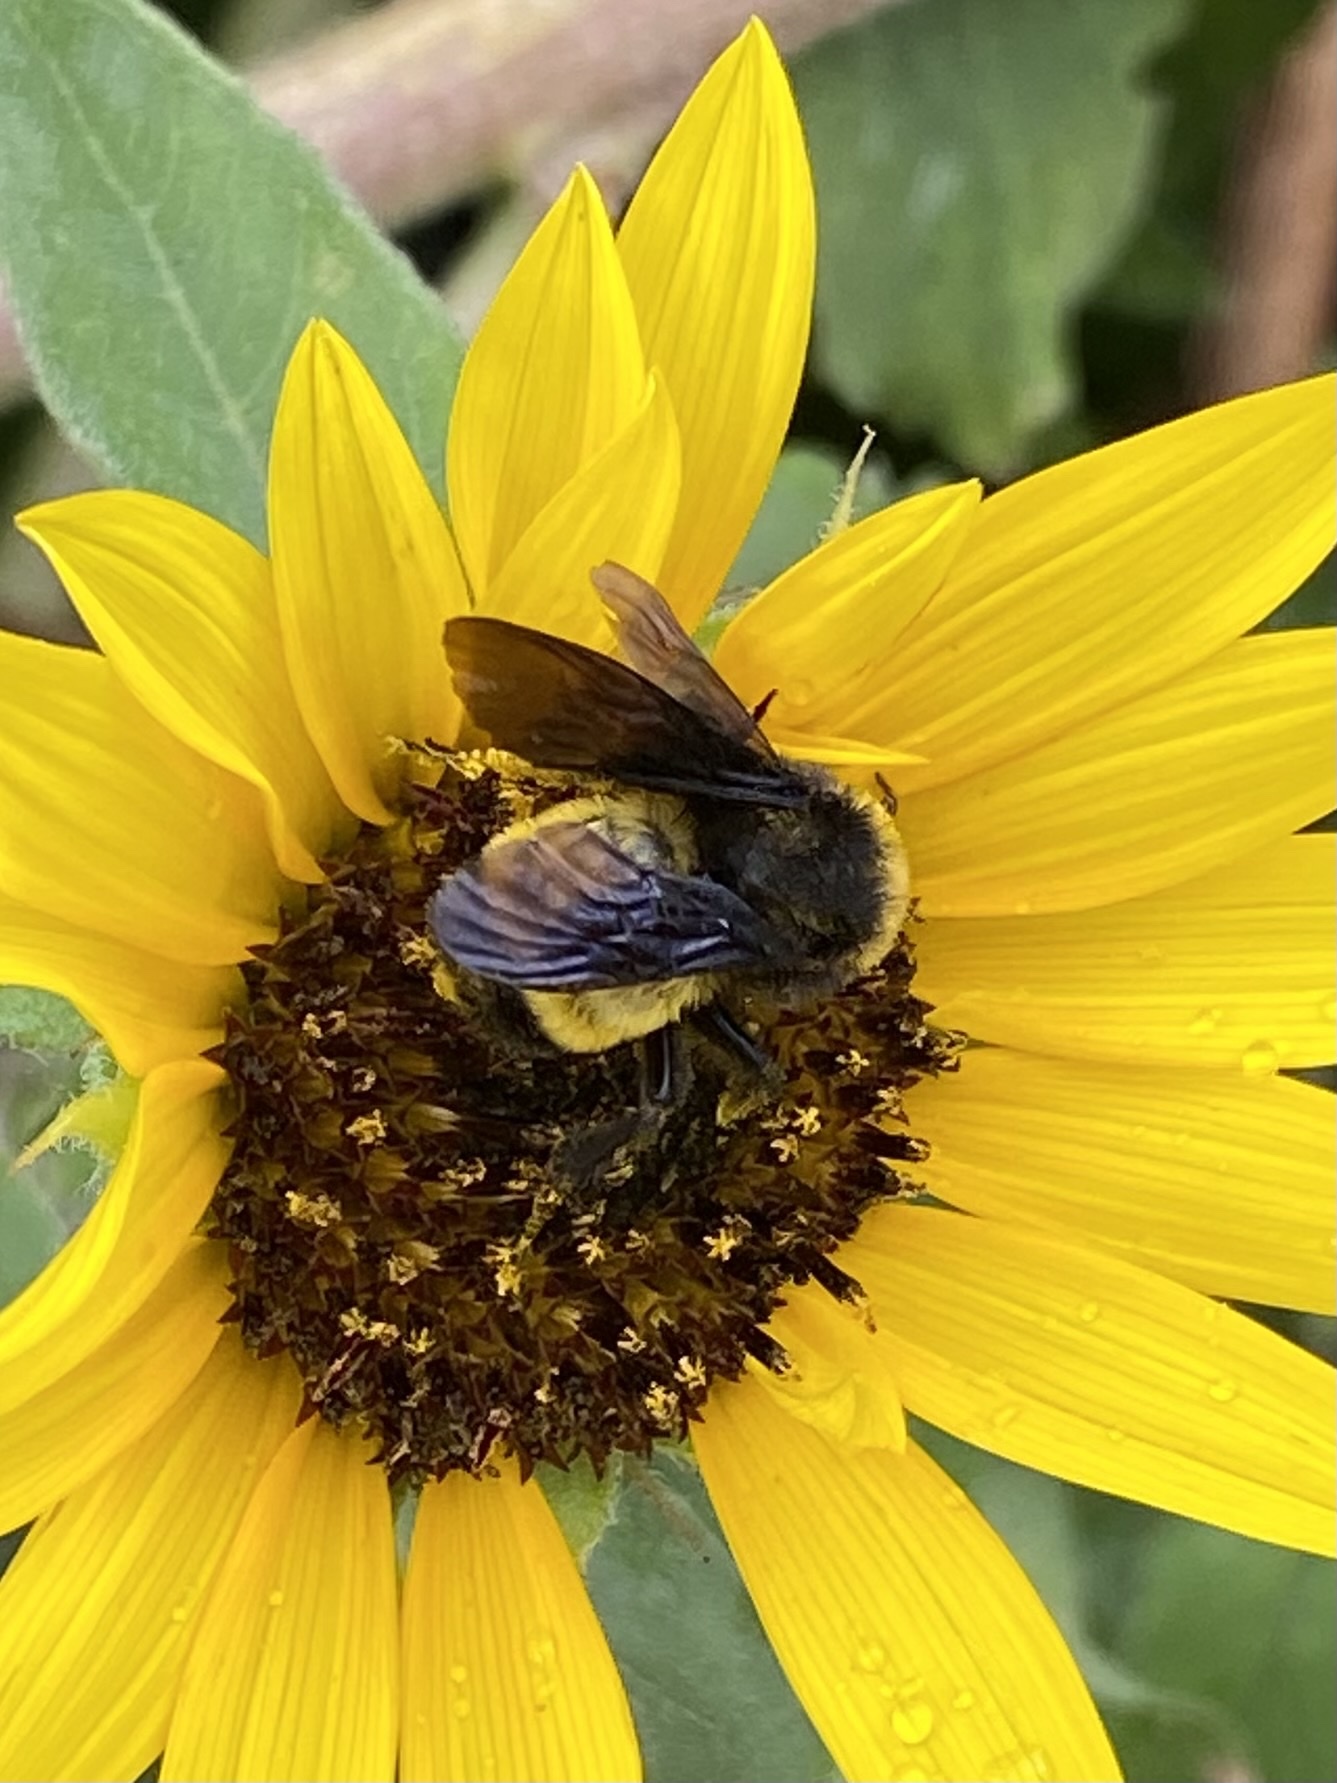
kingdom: Animalia
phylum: Arthropoda
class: Insecta
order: Hymenoptera
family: Apidae
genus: Bombus
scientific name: Bombus pensylvanicus
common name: Bumble bee
